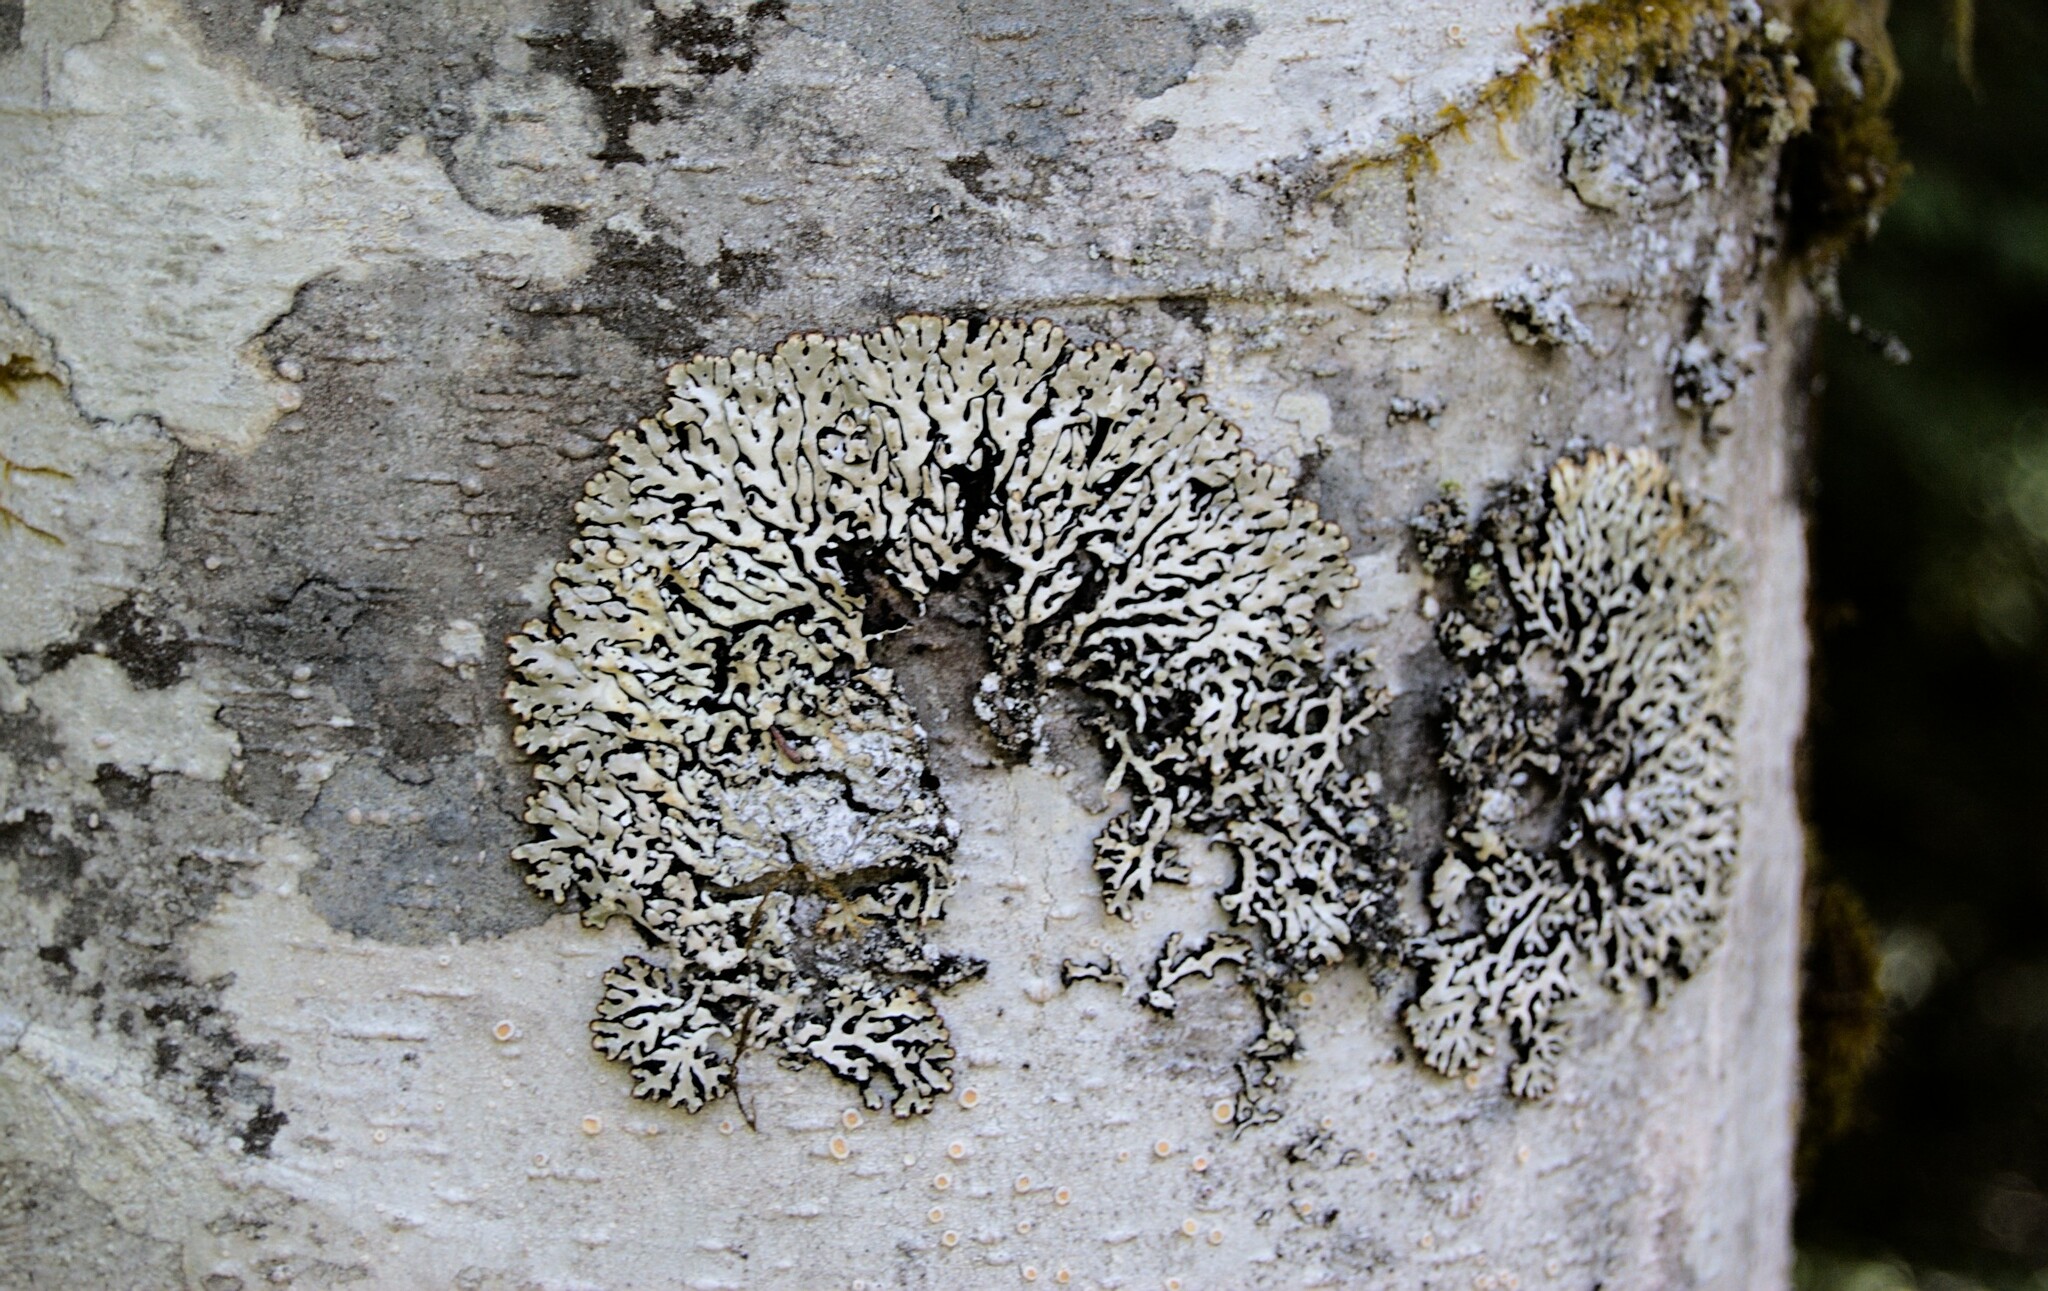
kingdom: Fungi
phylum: Ascomycota
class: Lecanoromycetes
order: Lecanorales
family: Parmeliaceae
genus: Menegazzia
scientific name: Menegazzia terebrata
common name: Magic treeflute lichen
